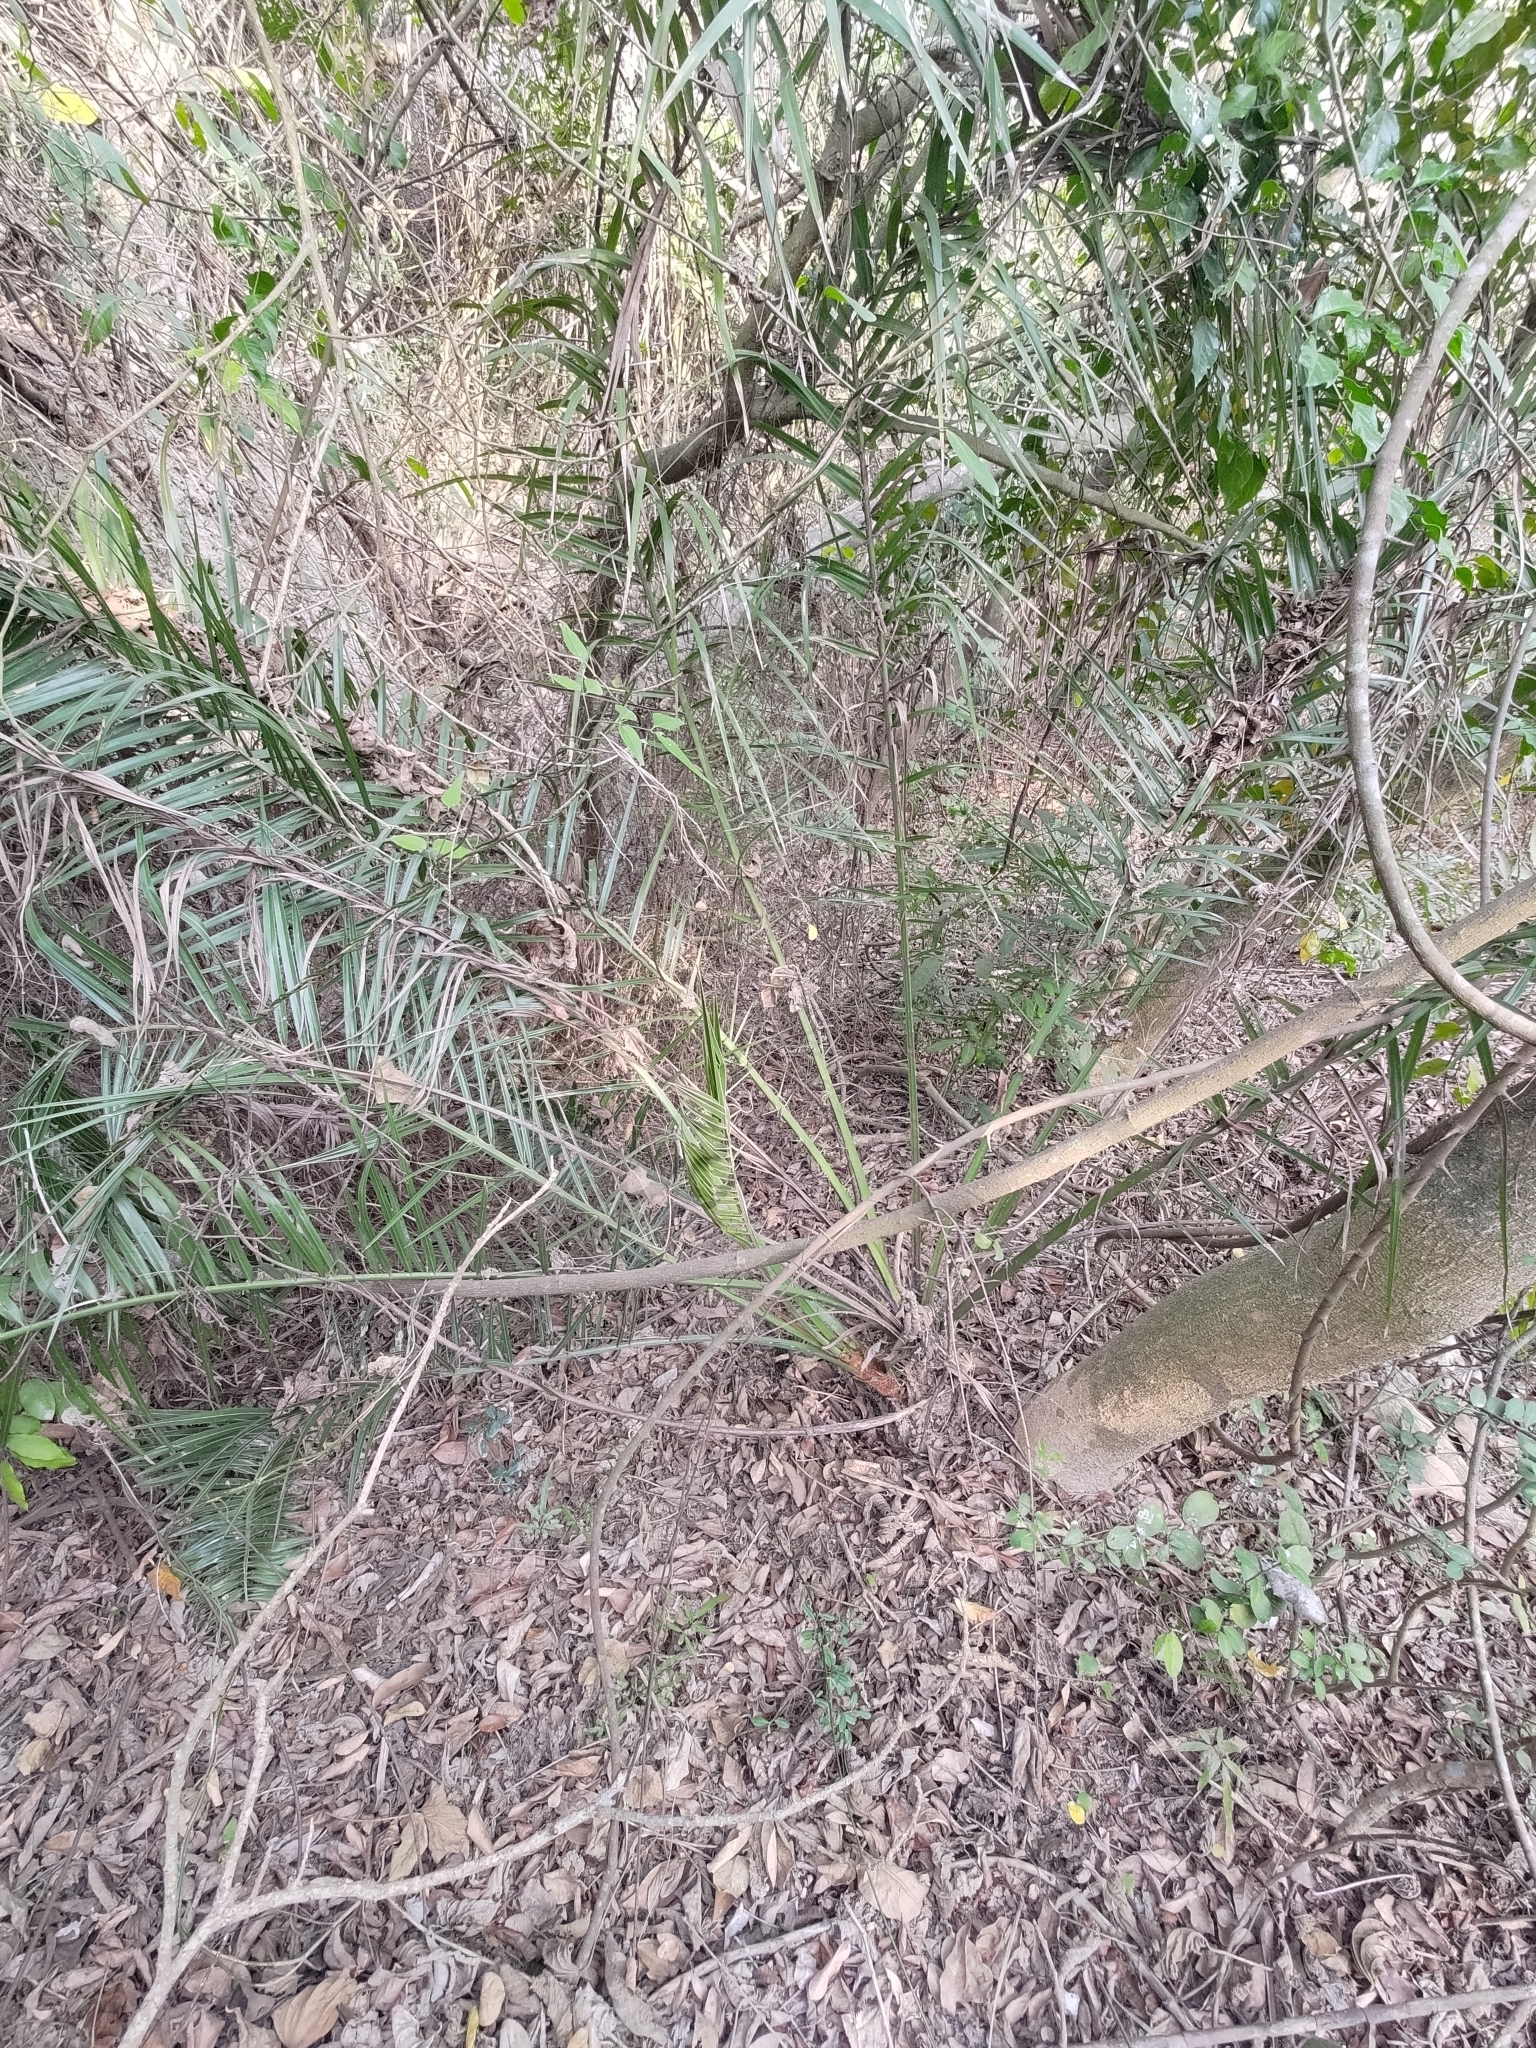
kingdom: Plantae
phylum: Tracheophyta
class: Liliopsida
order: Arecales
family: Arecaceae
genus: Phoenix
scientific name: Phoenix loureiroi
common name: Loureiro's palm
